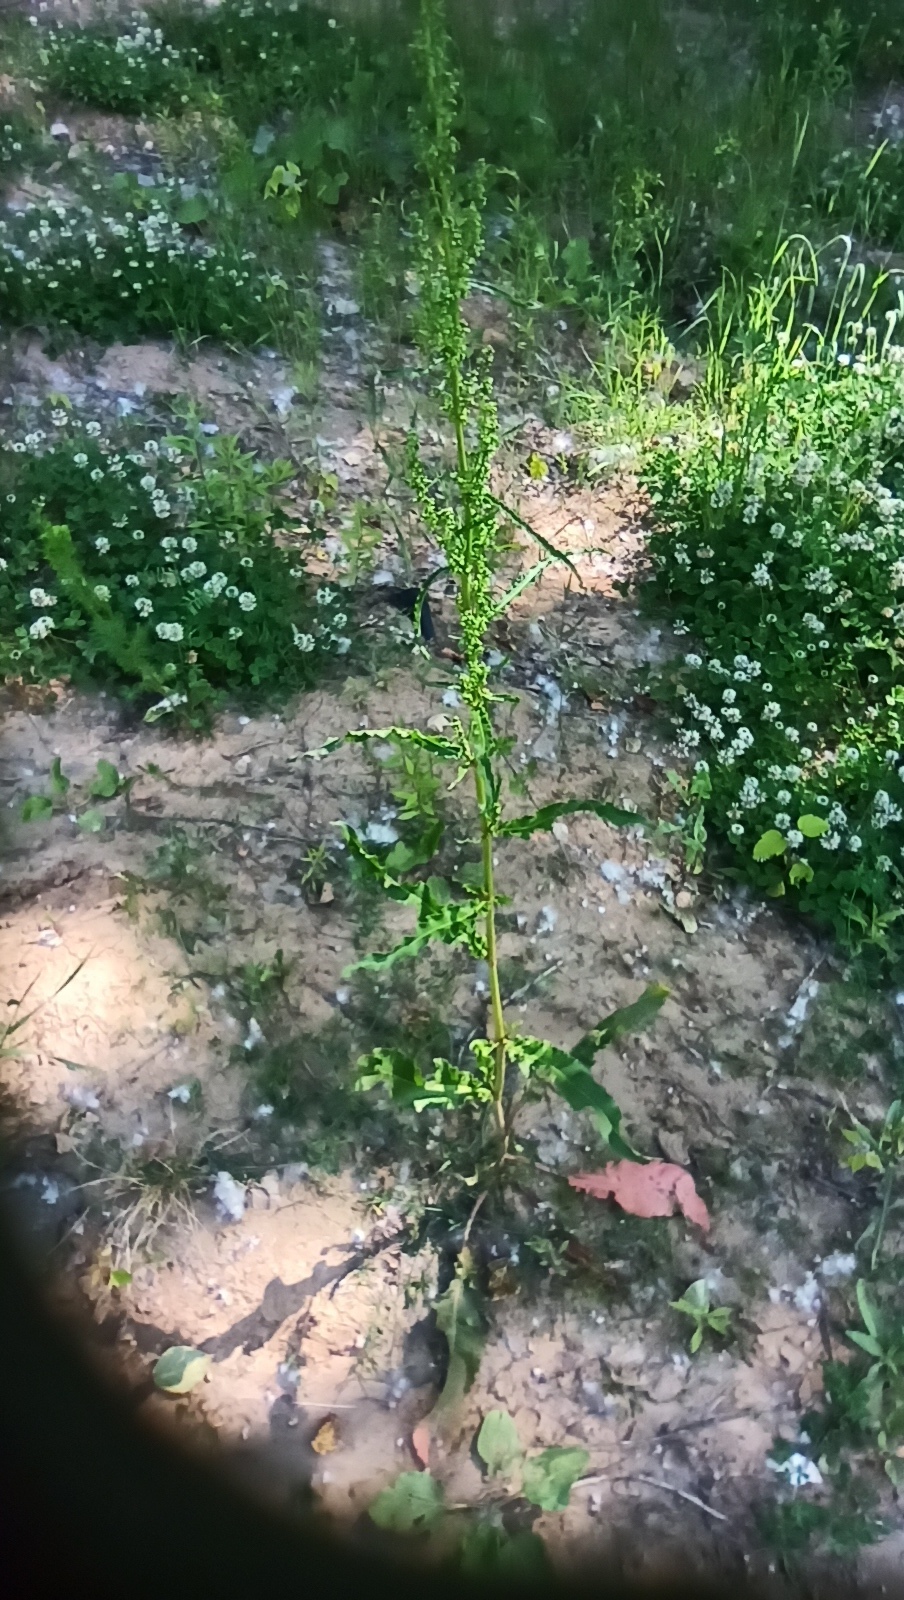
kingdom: Plantae
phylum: Tracheophyta
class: Magnoliopsida
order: Caryophyllales
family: Polygonaceae
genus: Rumex
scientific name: Rumex crispus
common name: Curled dock
